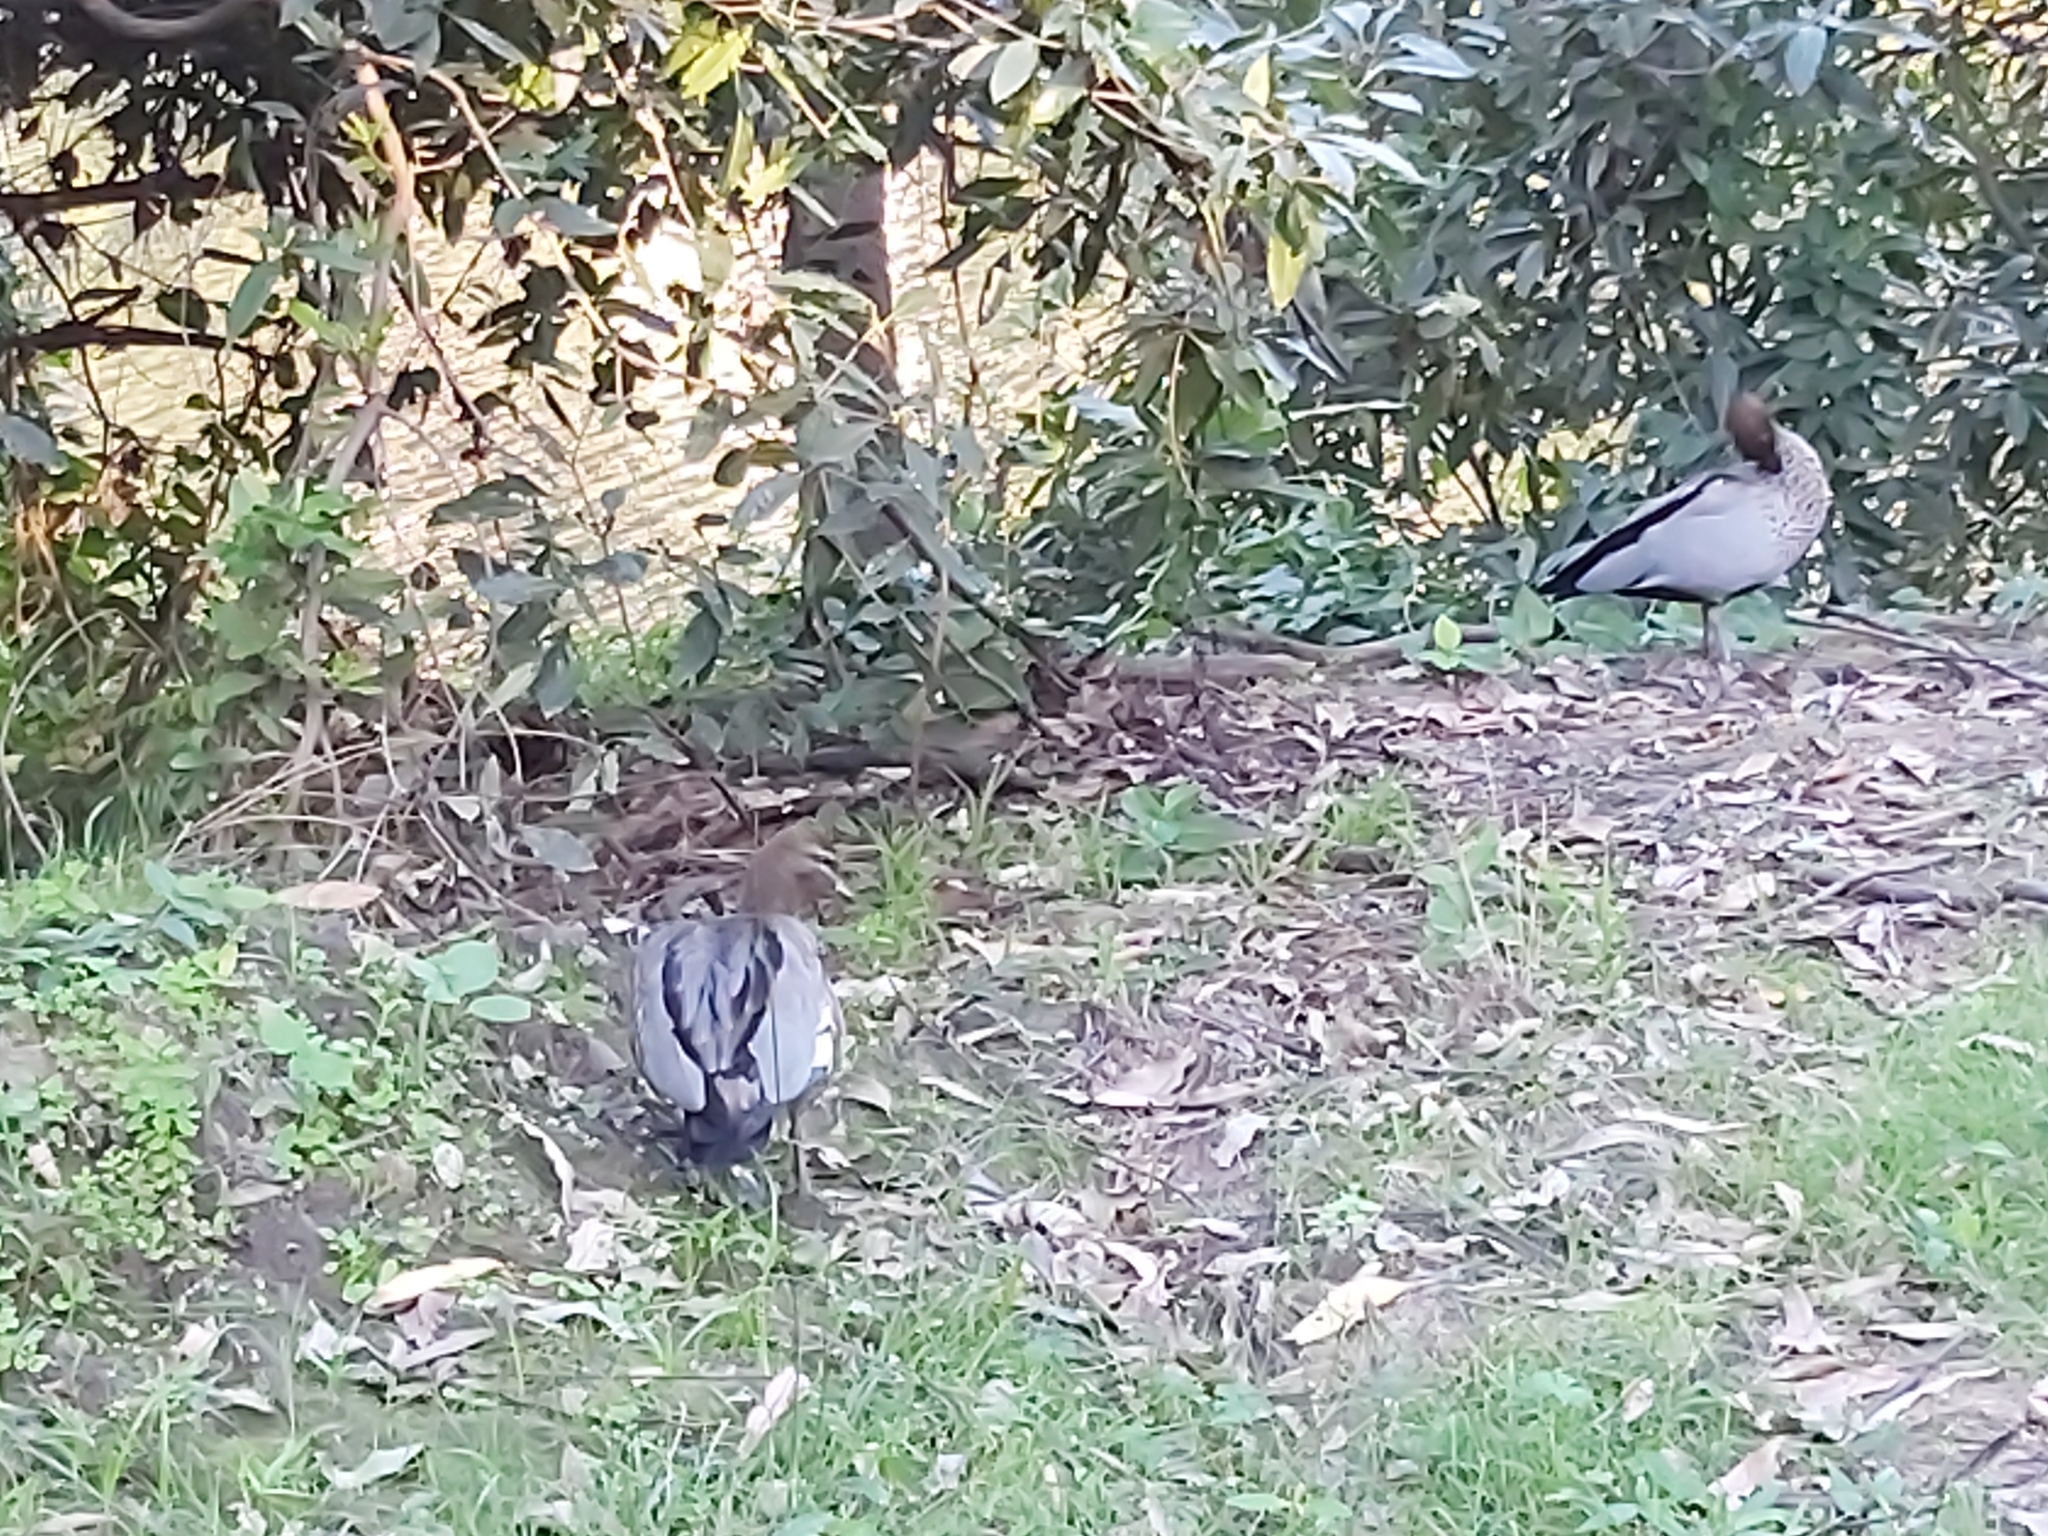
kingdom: Animalia
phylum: Chordata
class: Aves
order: Anseriformes
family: Anatidae
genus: Chenonetta
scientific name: Chenonetta jubata
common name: Maned duck
